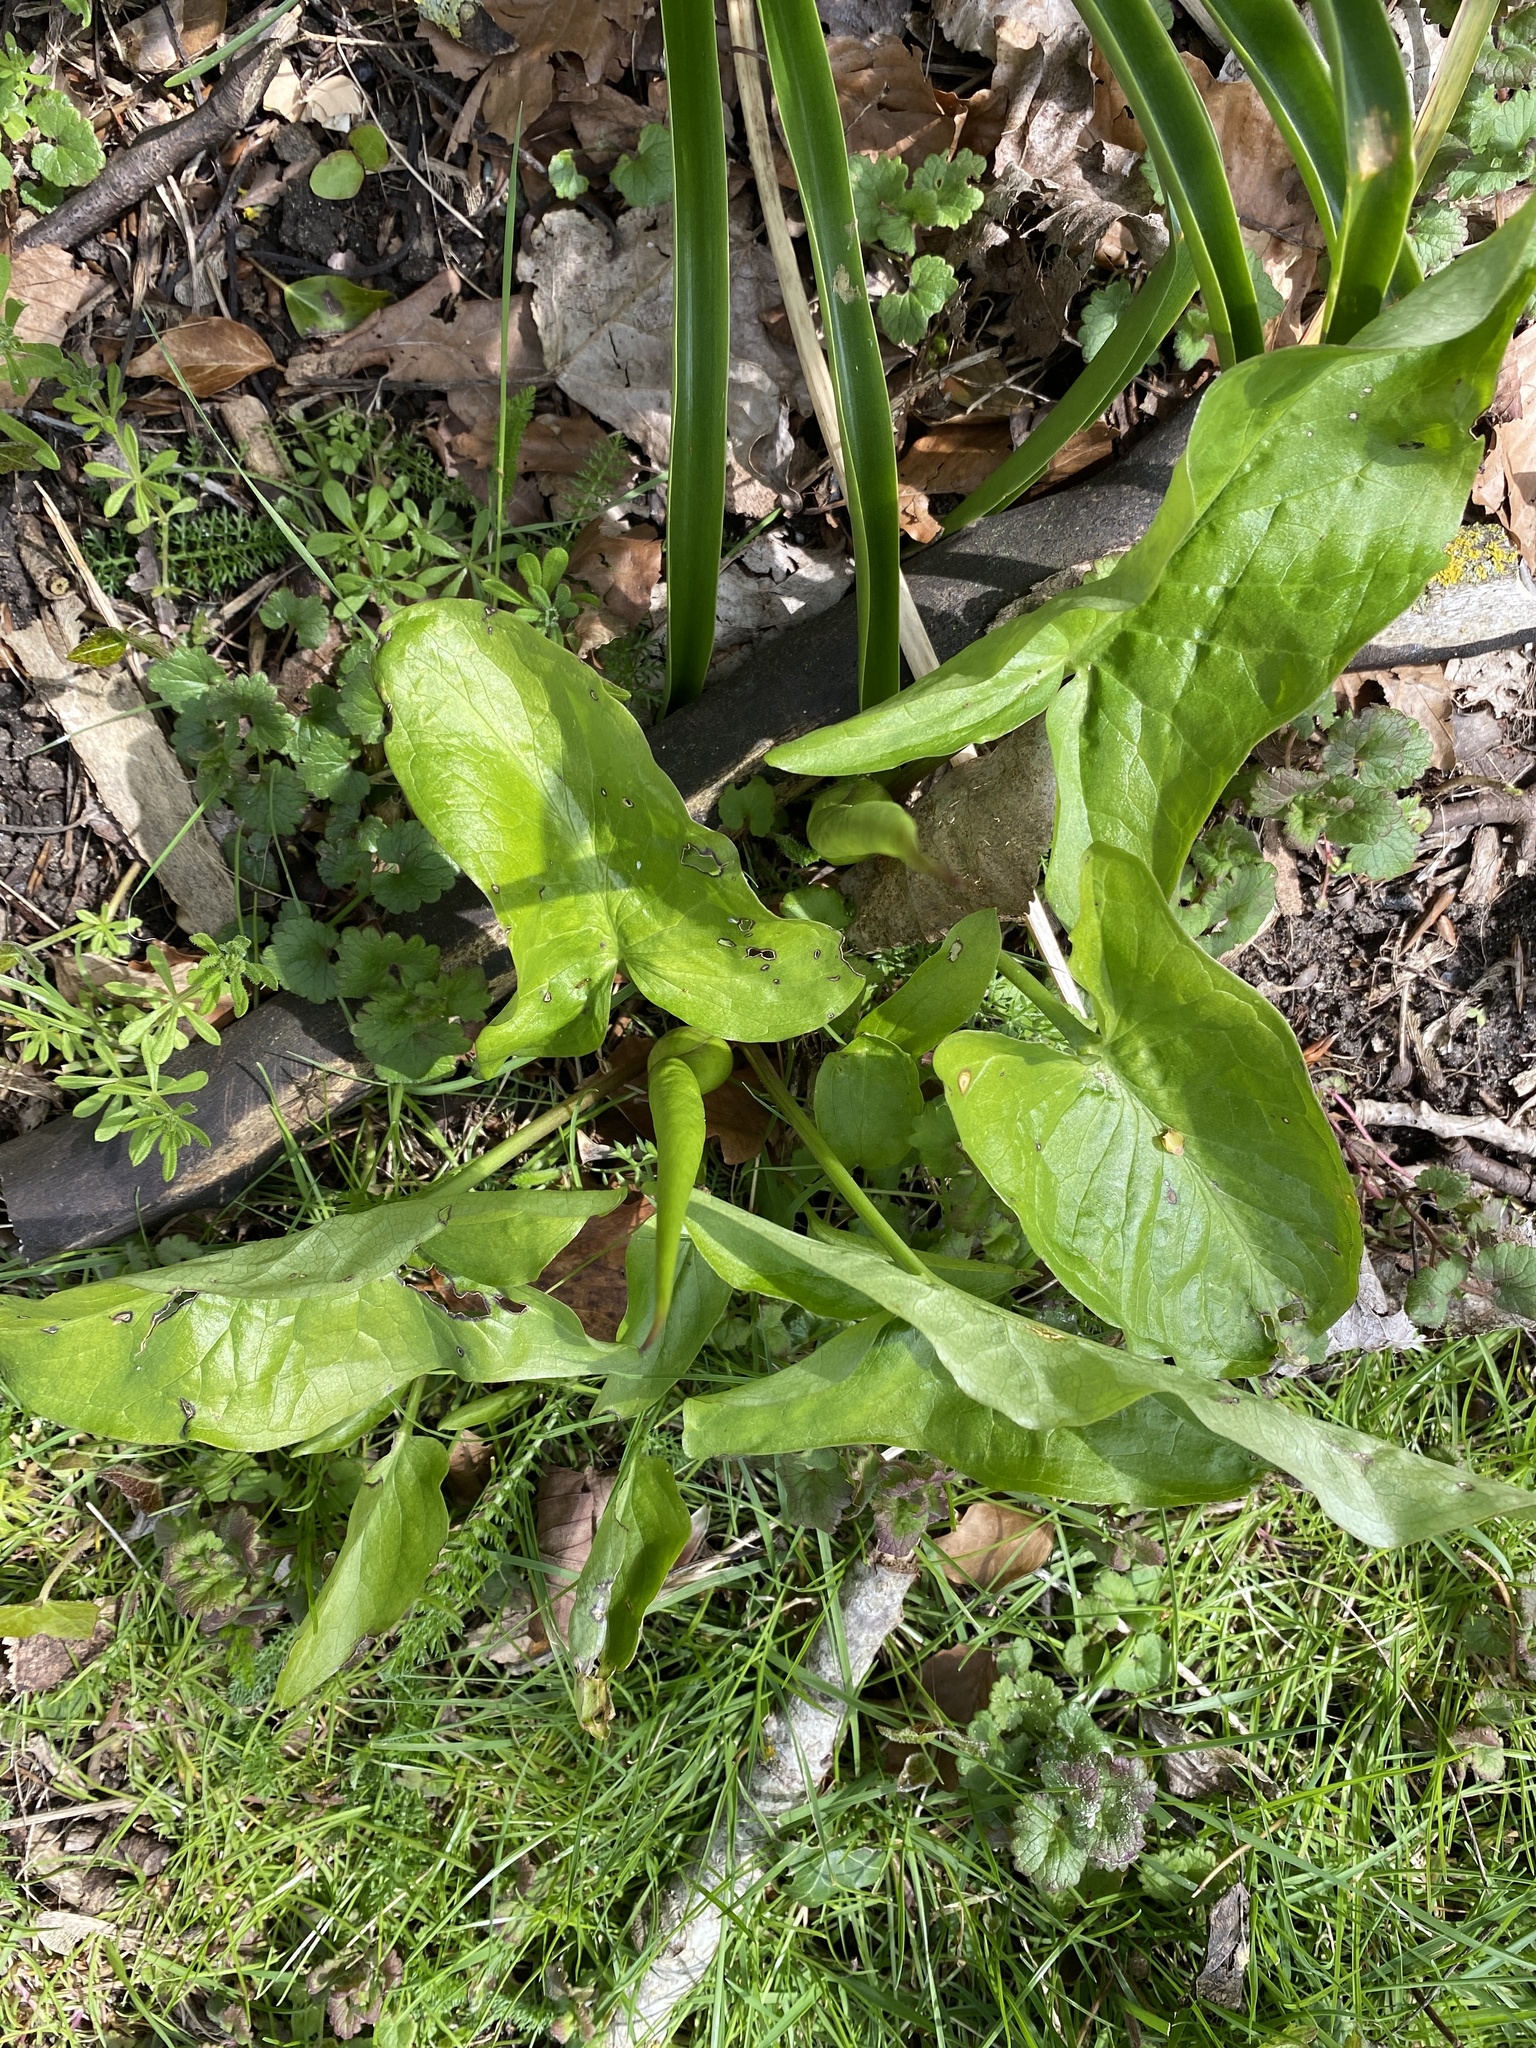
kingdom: Plantae
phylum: Tracheophyta
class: Liliopsida
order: Alismatales
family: Araceae
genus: Arum
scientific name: Arum maculatum
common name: Lords-and-ladies
